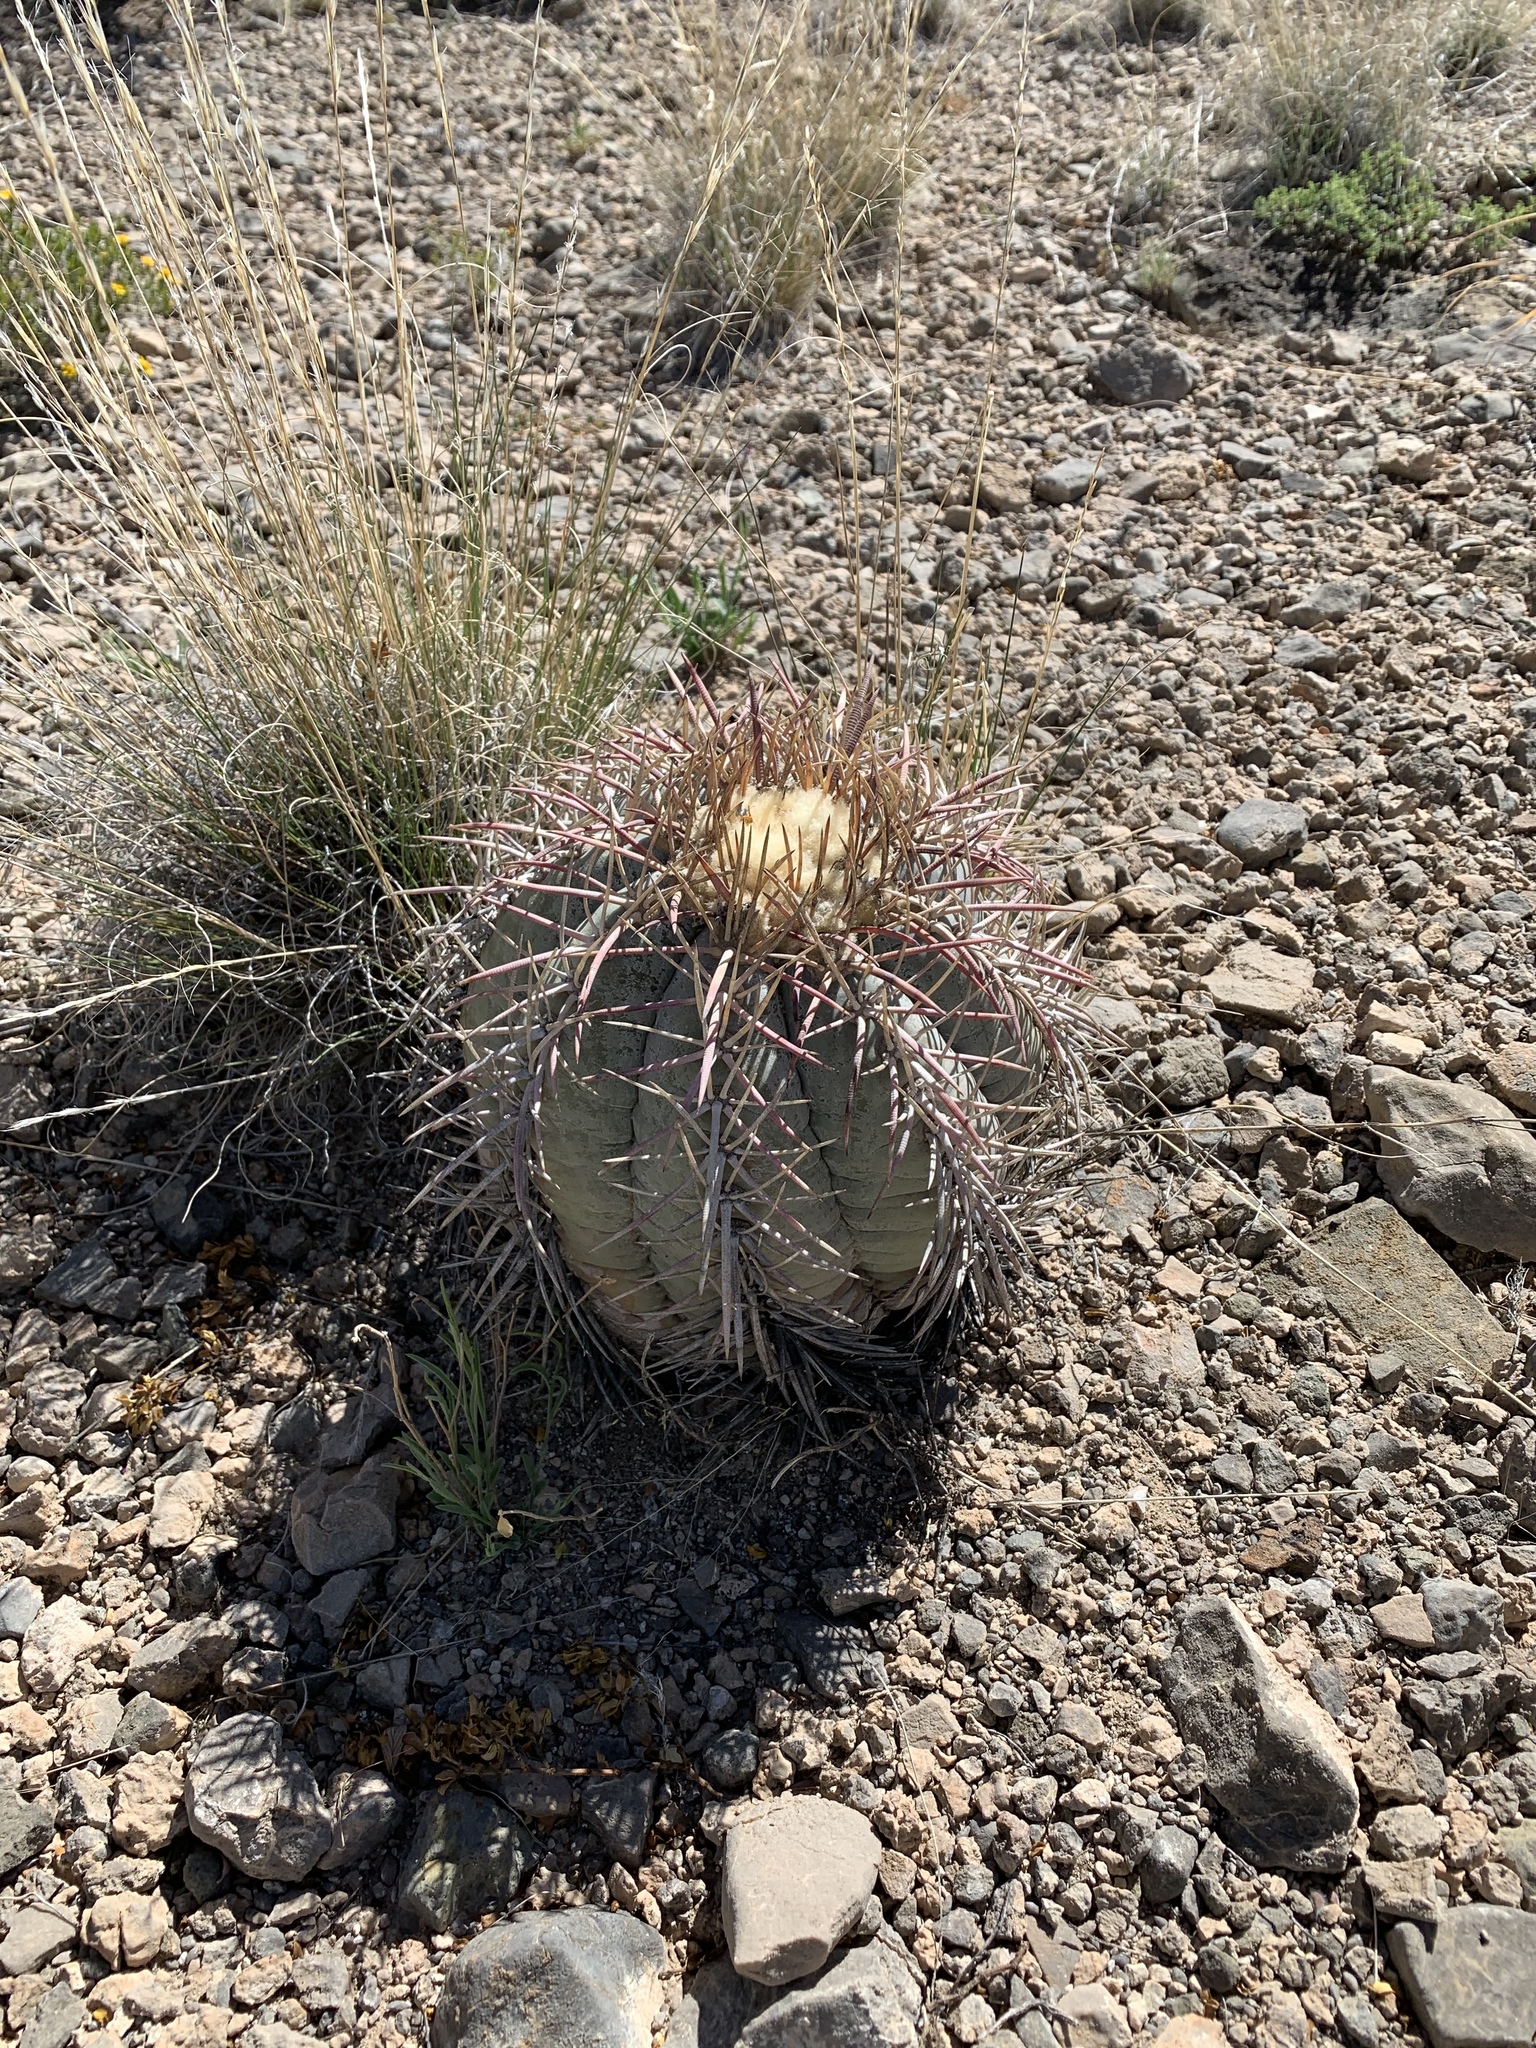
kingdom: Plantae
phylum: Tracheophyta
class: Magnoliopsida
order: Caryophyllales
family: Cactaceae
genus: Echinocactus
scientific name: Echinocactus horizonthalonius
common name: Devilshead
